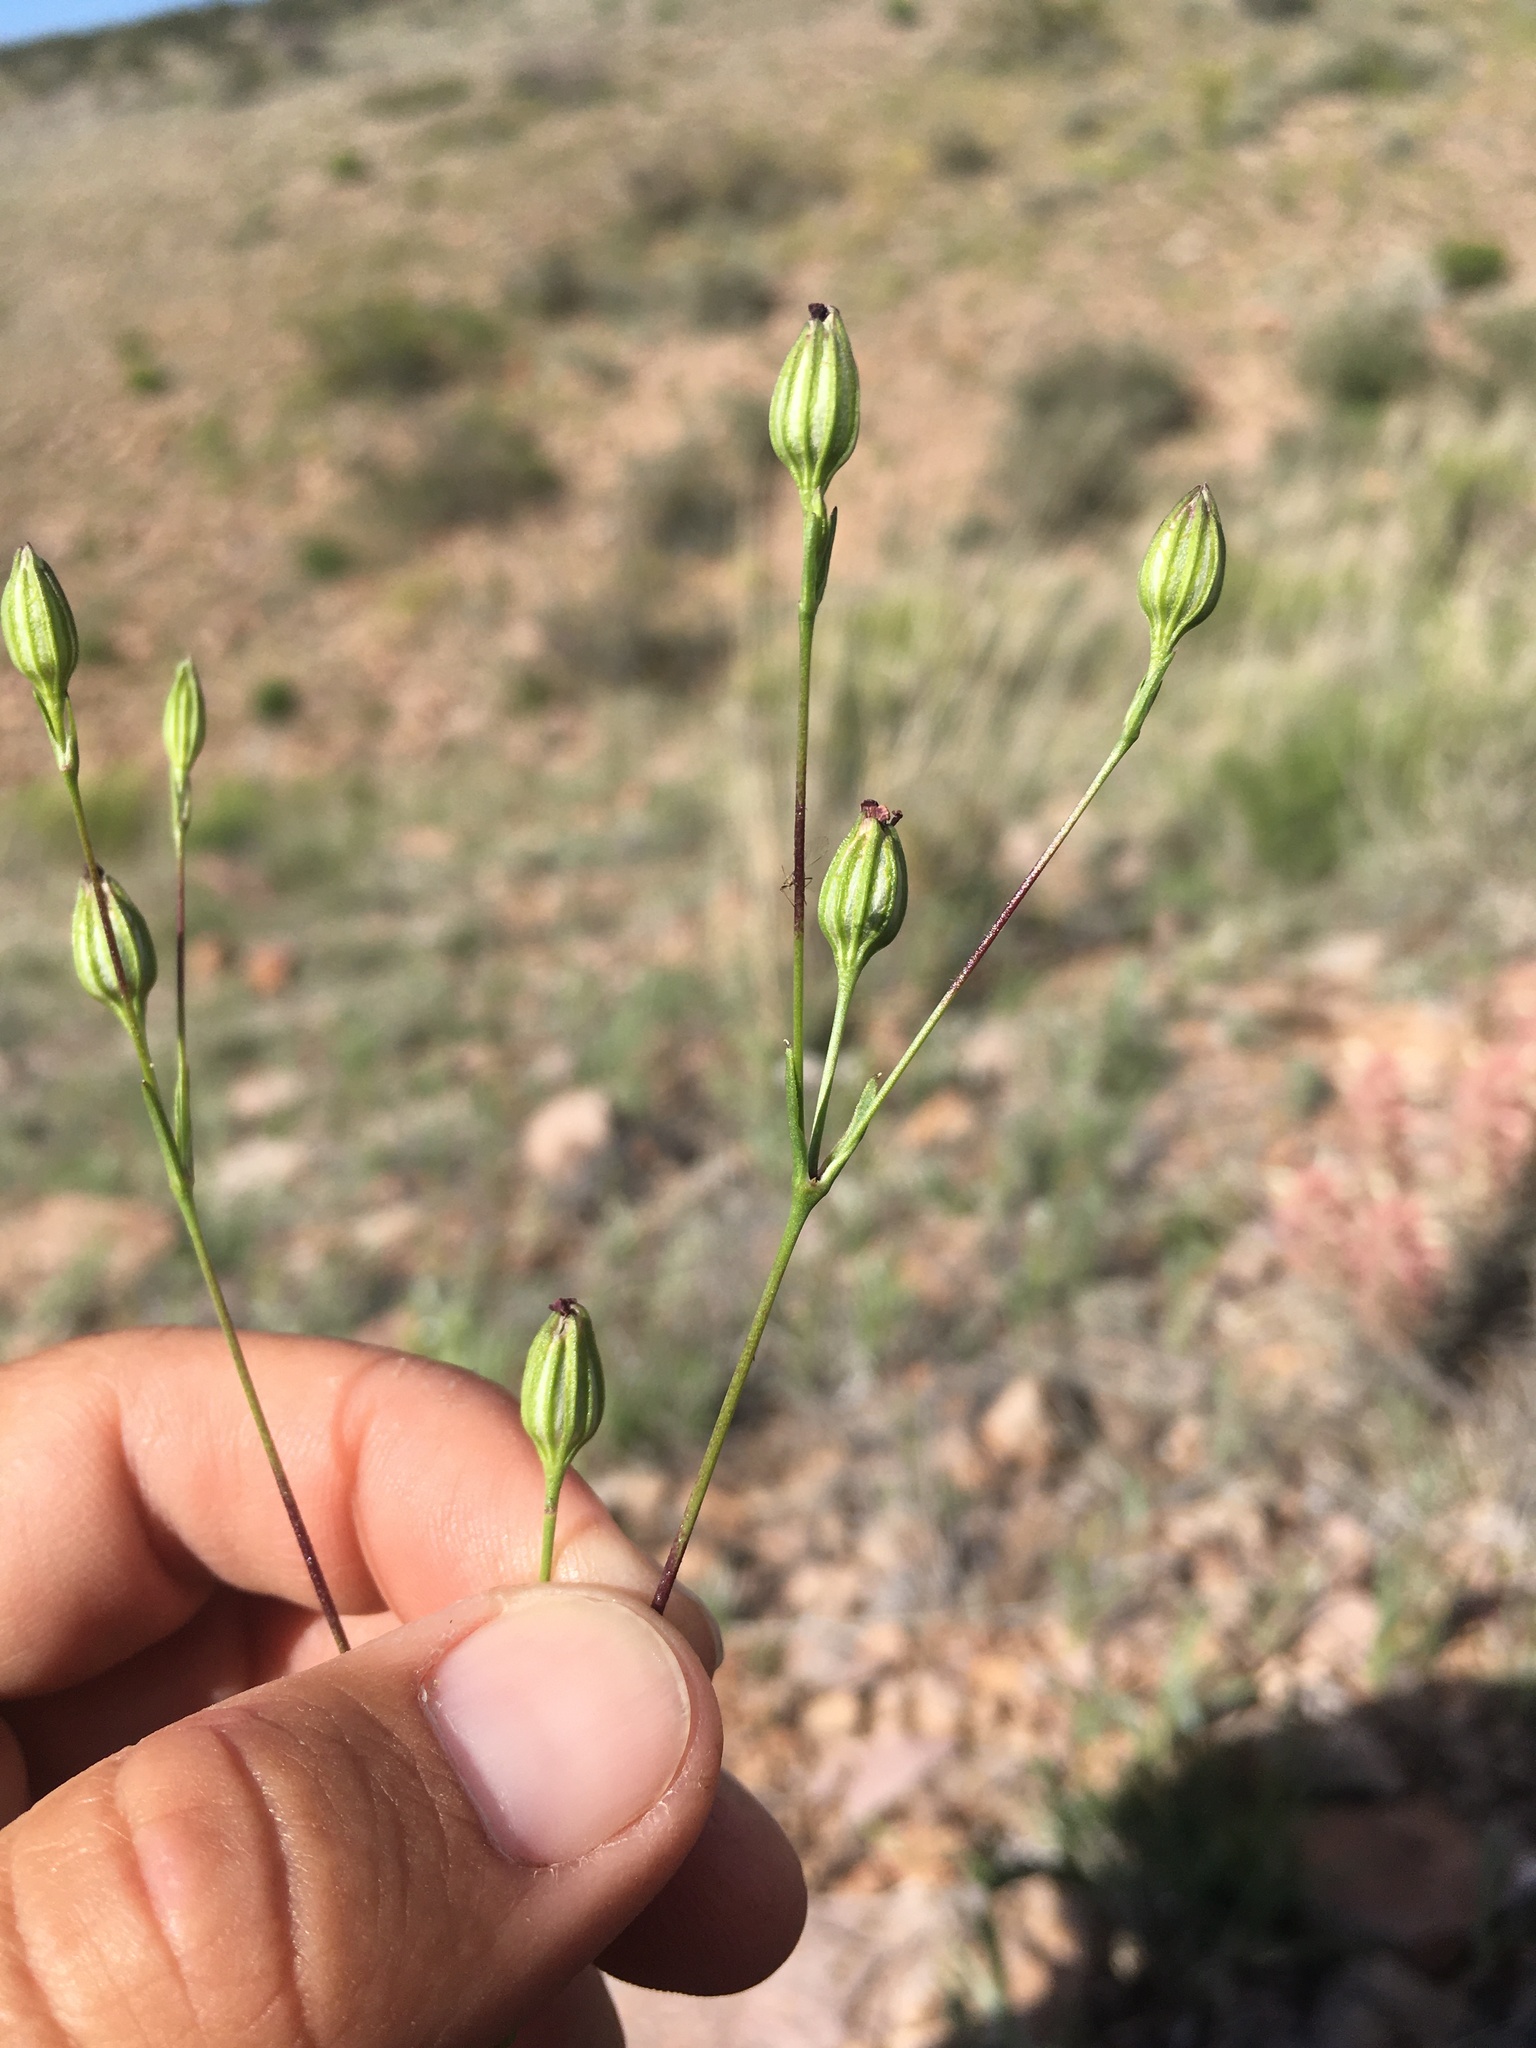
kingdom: Plantae
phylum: Tracheophyta
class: Magnoliopsida
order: Caryophyllales
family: Caryophyllaceae
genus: Silene
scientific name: Silene antirrhina
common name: Sleepy catchfly
